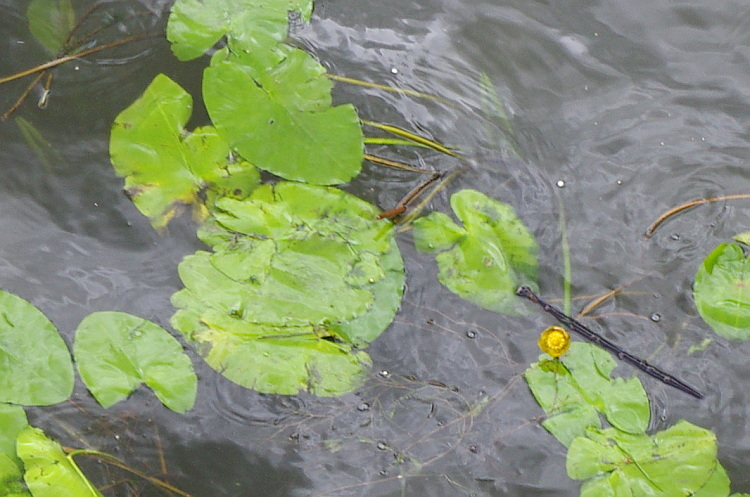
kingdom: Plantae
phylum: Tracheophyta
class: Magnoliopsida
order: Nymphaeales
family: Nymphaeaceae
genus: Nuphar
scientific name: Nuphar lutea
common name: Yellow water-lily
